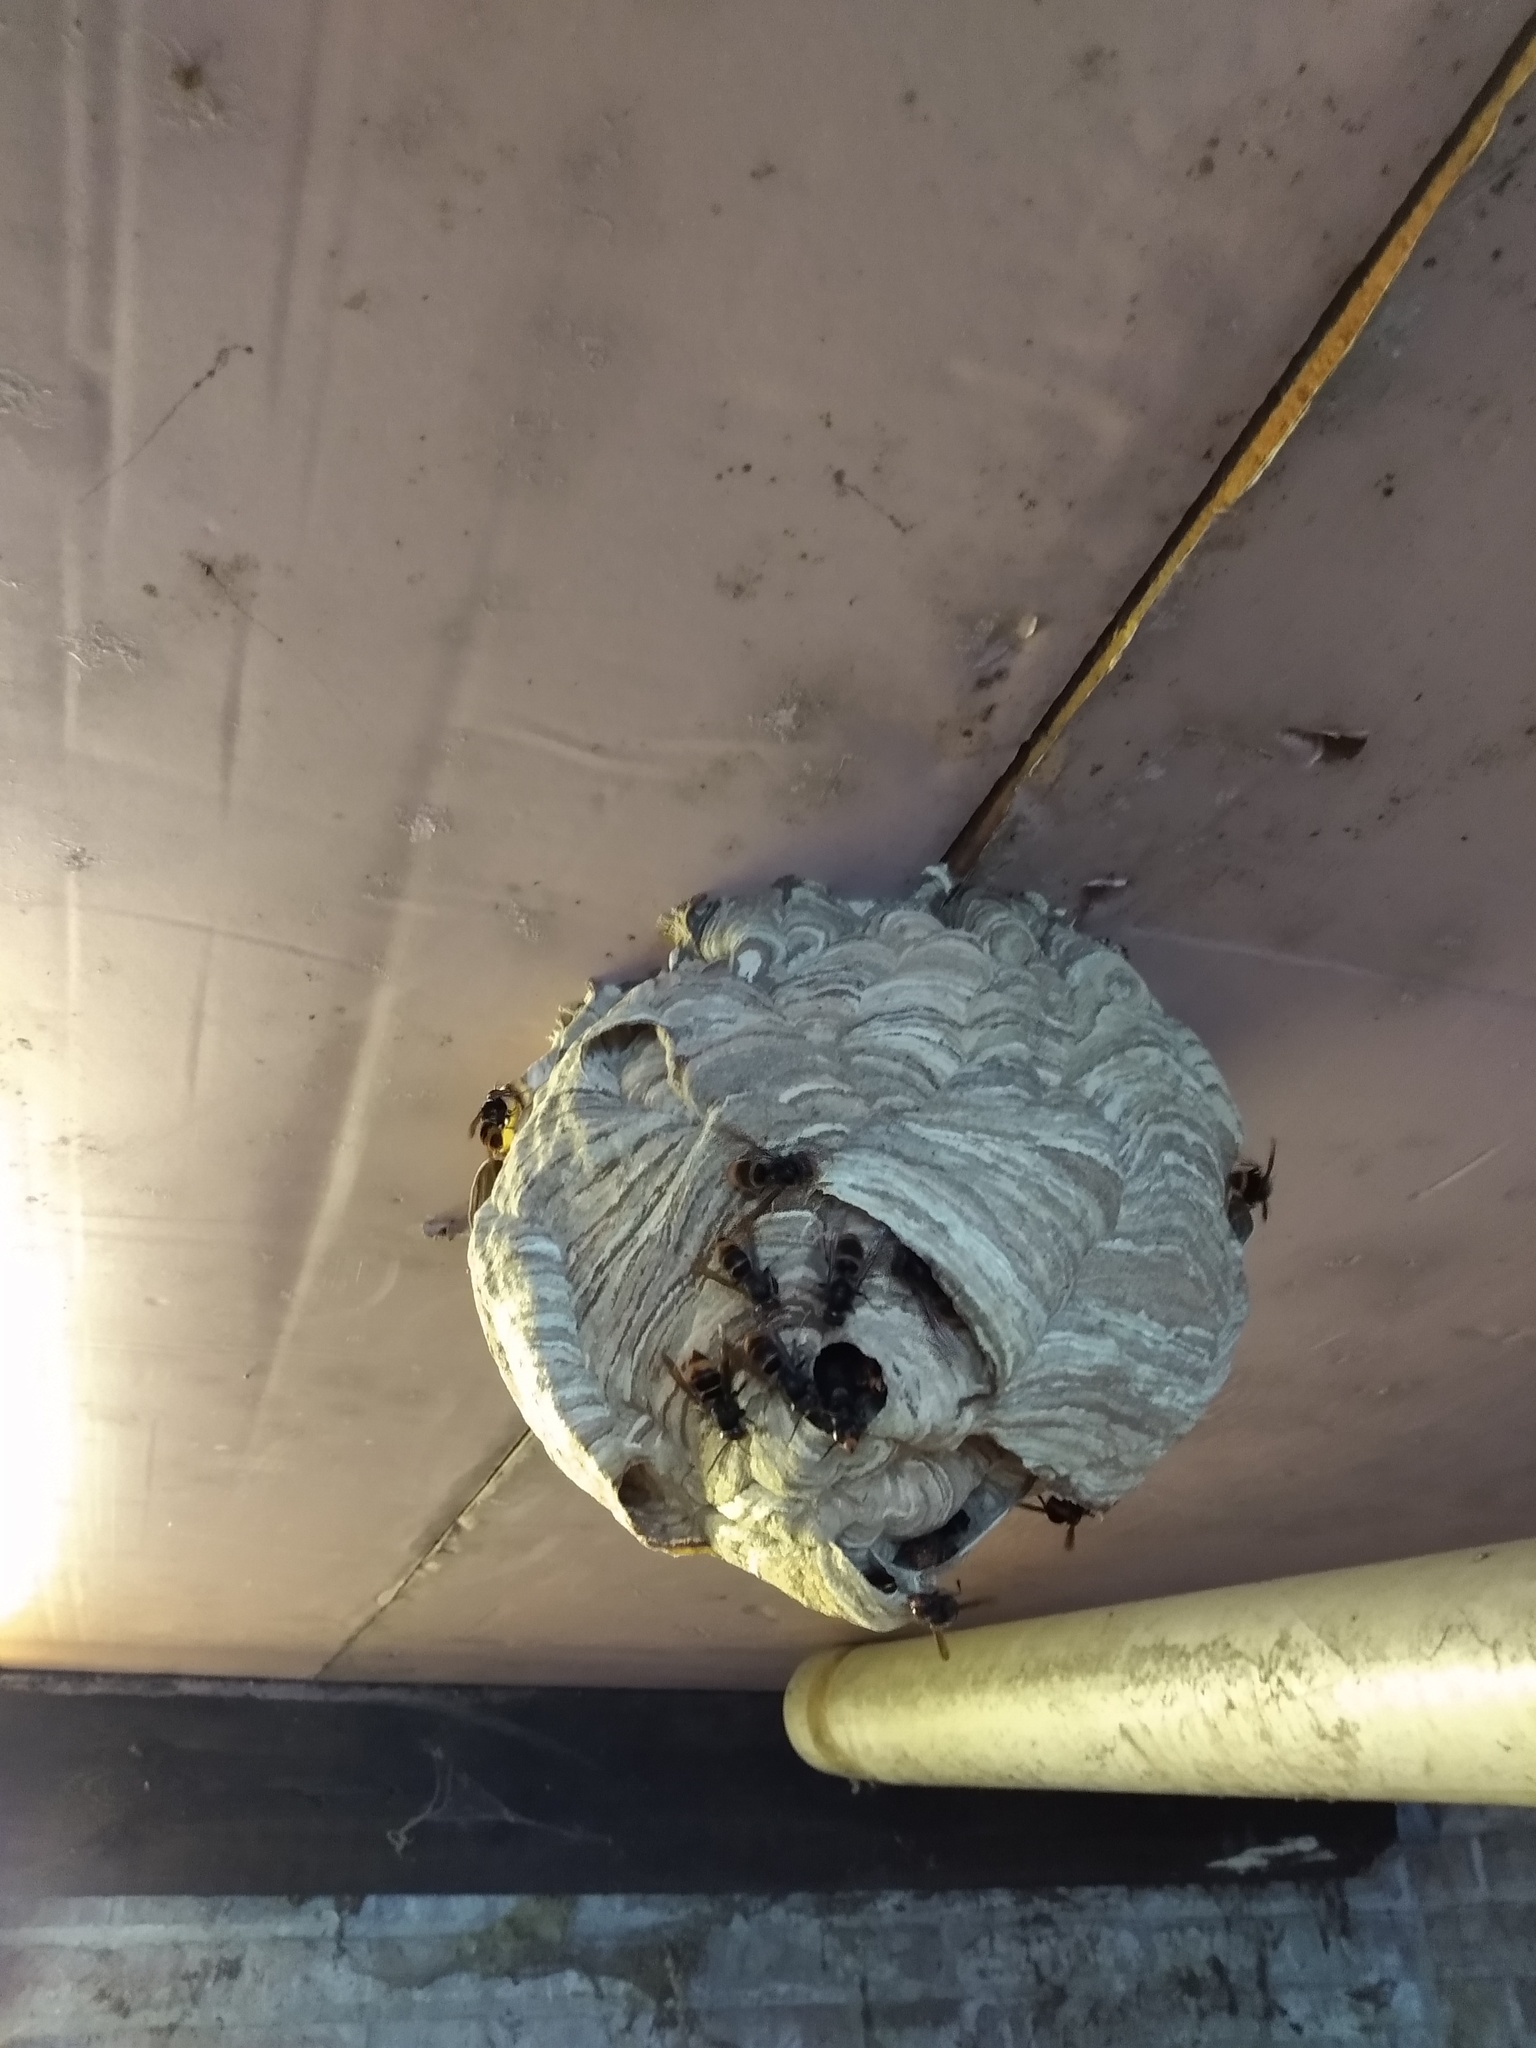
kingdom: Animalia
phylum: Arthropoda
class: Insecta
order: Hymenoptera
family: Vespidae
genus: Vespa
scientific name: Vespa velutina
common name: Asian hornet
